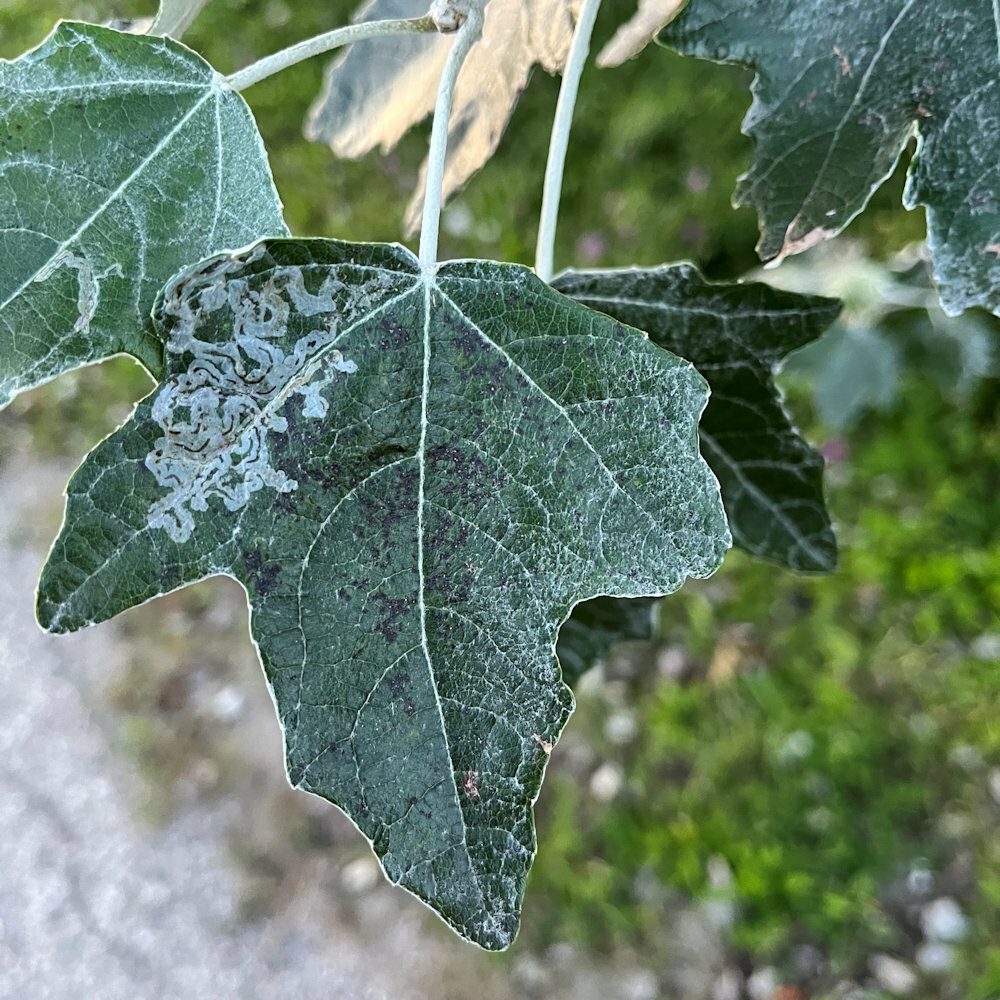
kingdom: Animalia
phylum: Arthropoda
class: Insecta
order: Lepidoptera
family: Gracillariidae
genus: Phyllocnistis
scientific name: Phyllocnistis populiella
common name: Aspen serpentine leafminer moth
